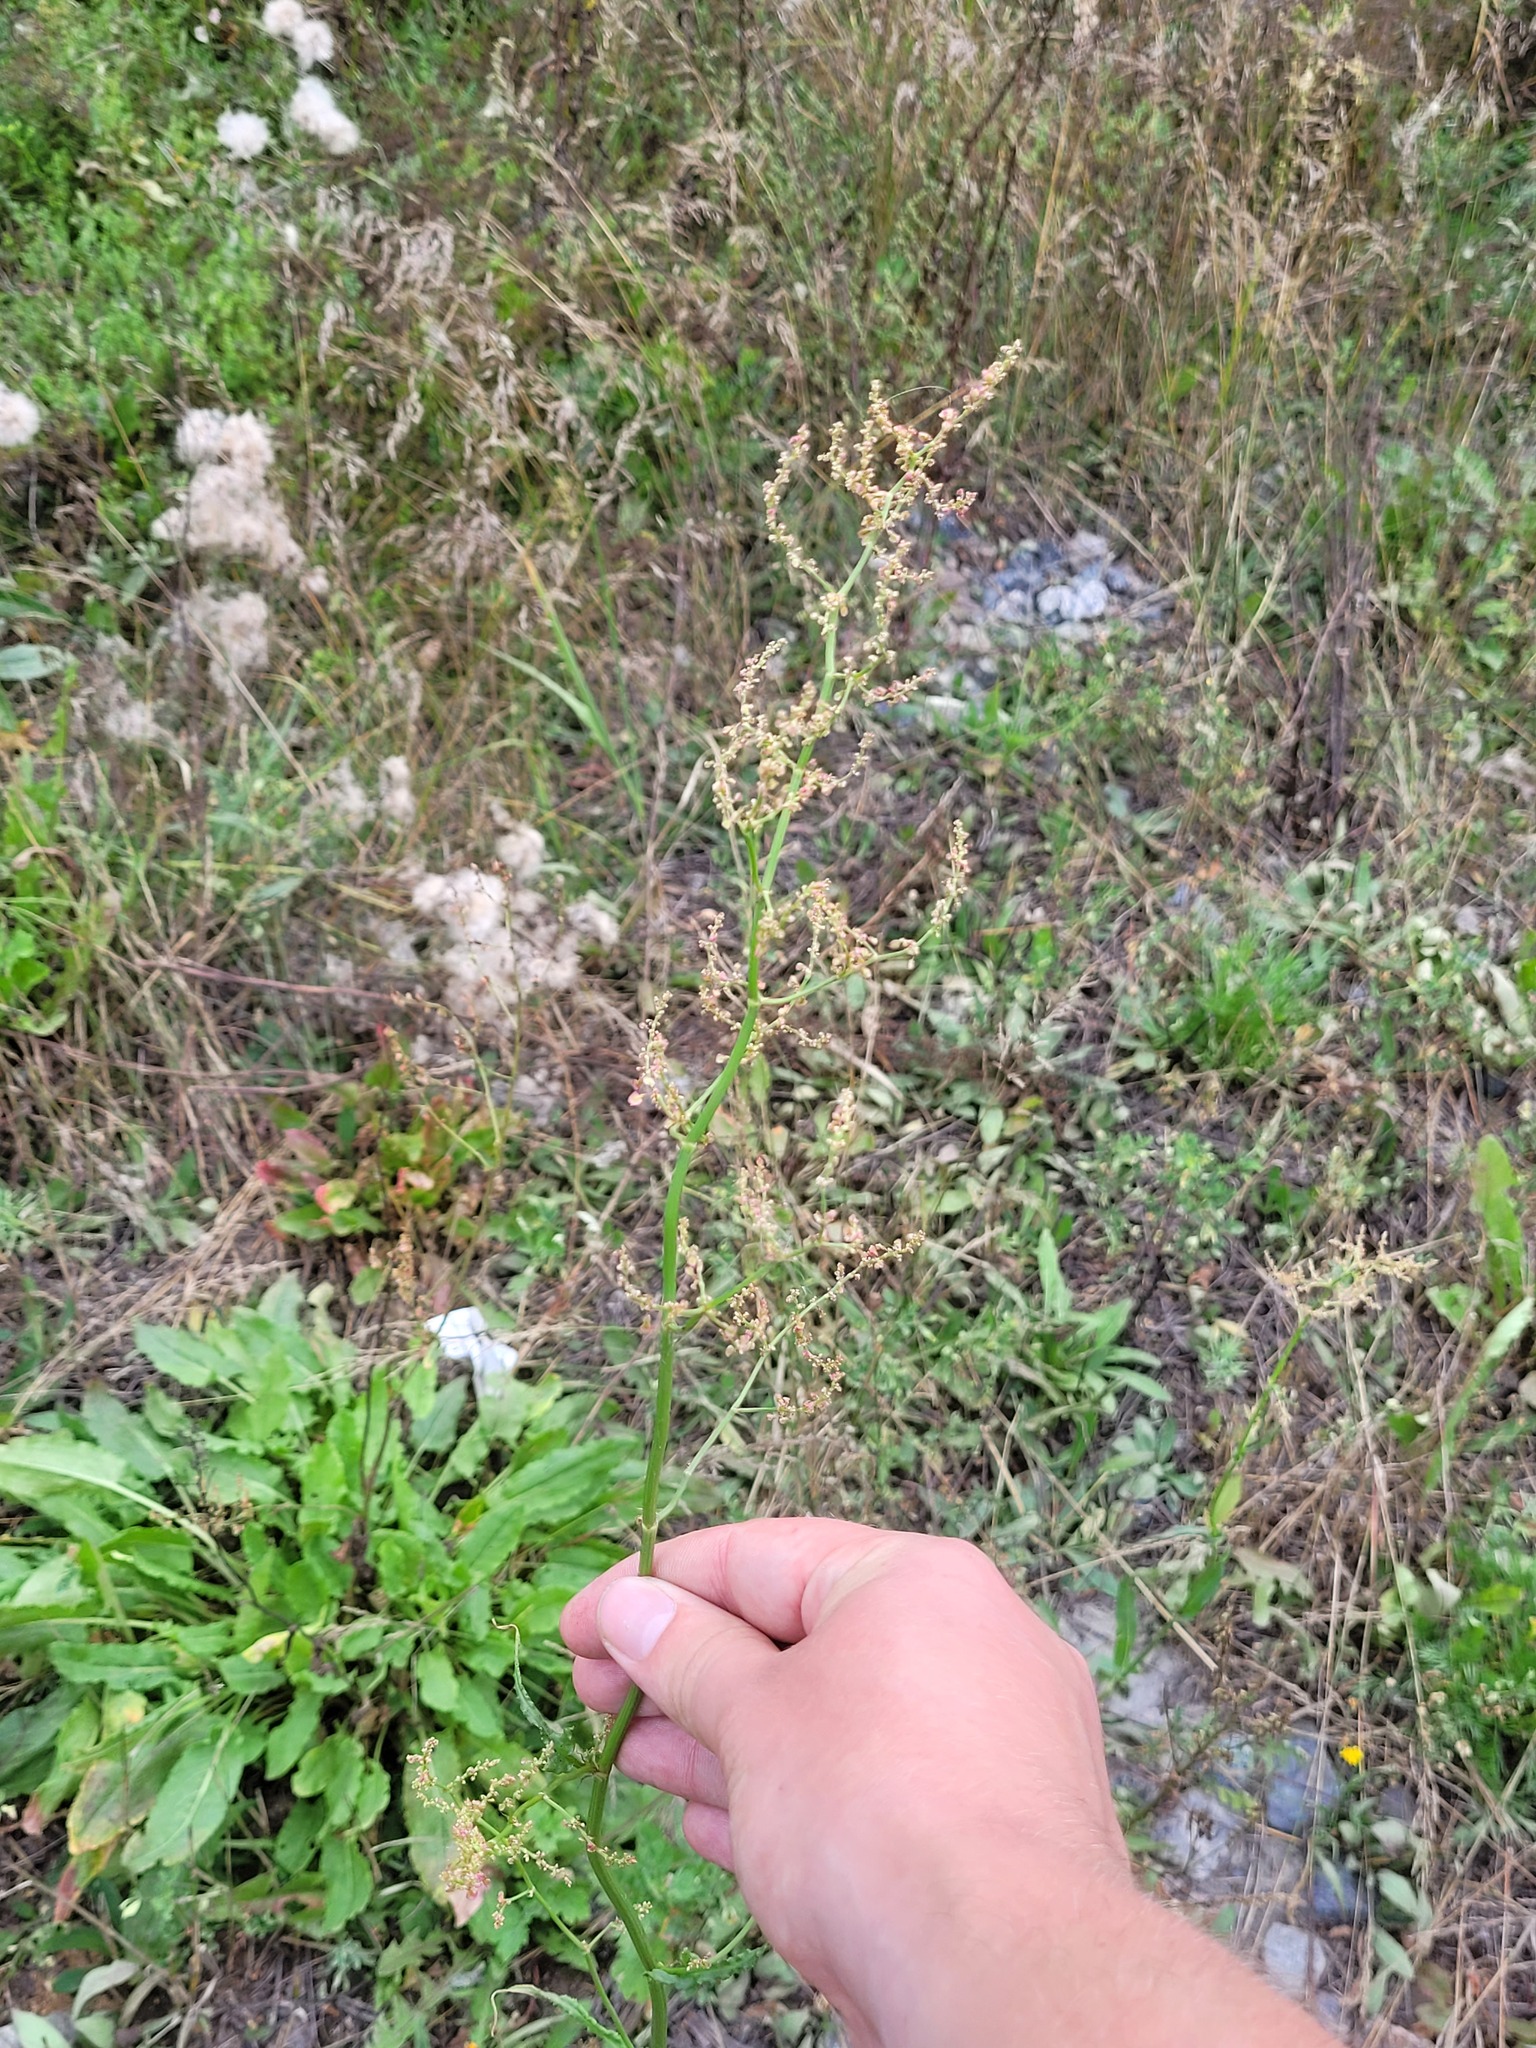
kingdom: Plantae
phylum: Tracheophyta
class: Magnoliopsida
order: Caryophyllales
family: Polygonaceae
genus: Rumex
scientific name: Rumex thyrsiflorus
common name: Garden sorrel
